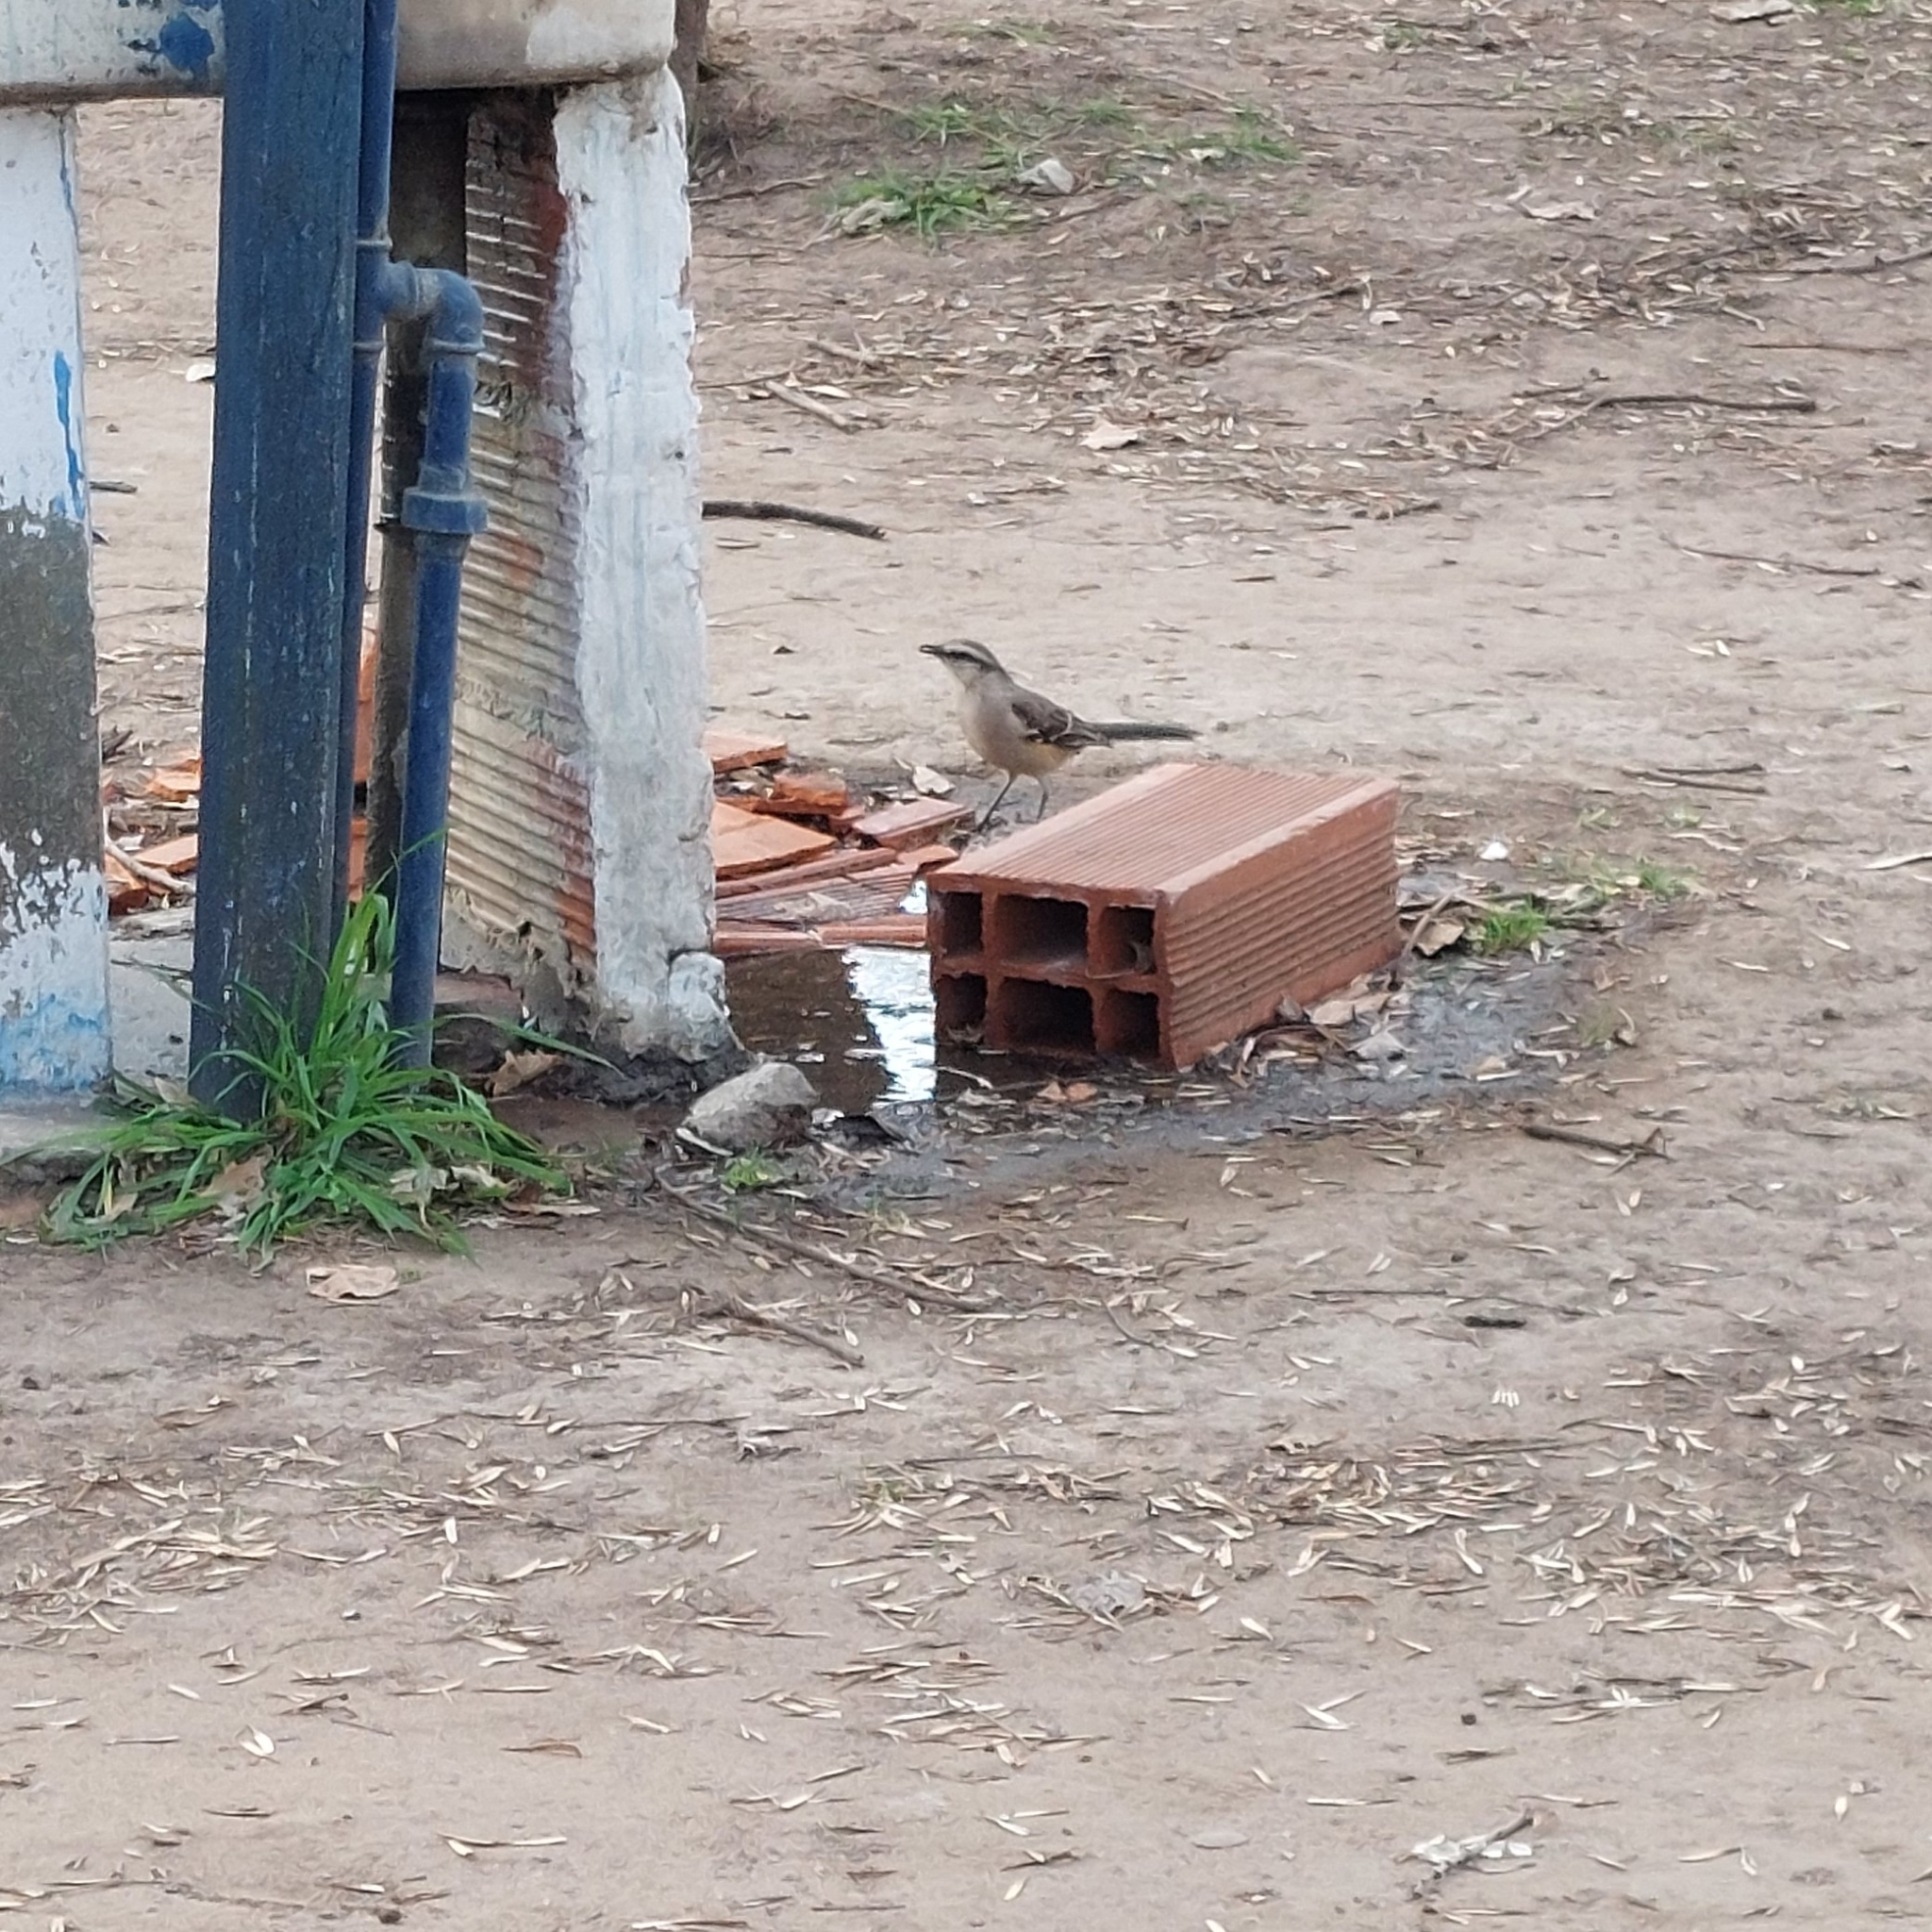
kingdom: Animalia
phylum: Chordata
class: Aves
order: Passeriformes
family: Mimidae
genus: Mimus
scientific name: Mimus saturninus
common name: Chalk-browed mockingbird
